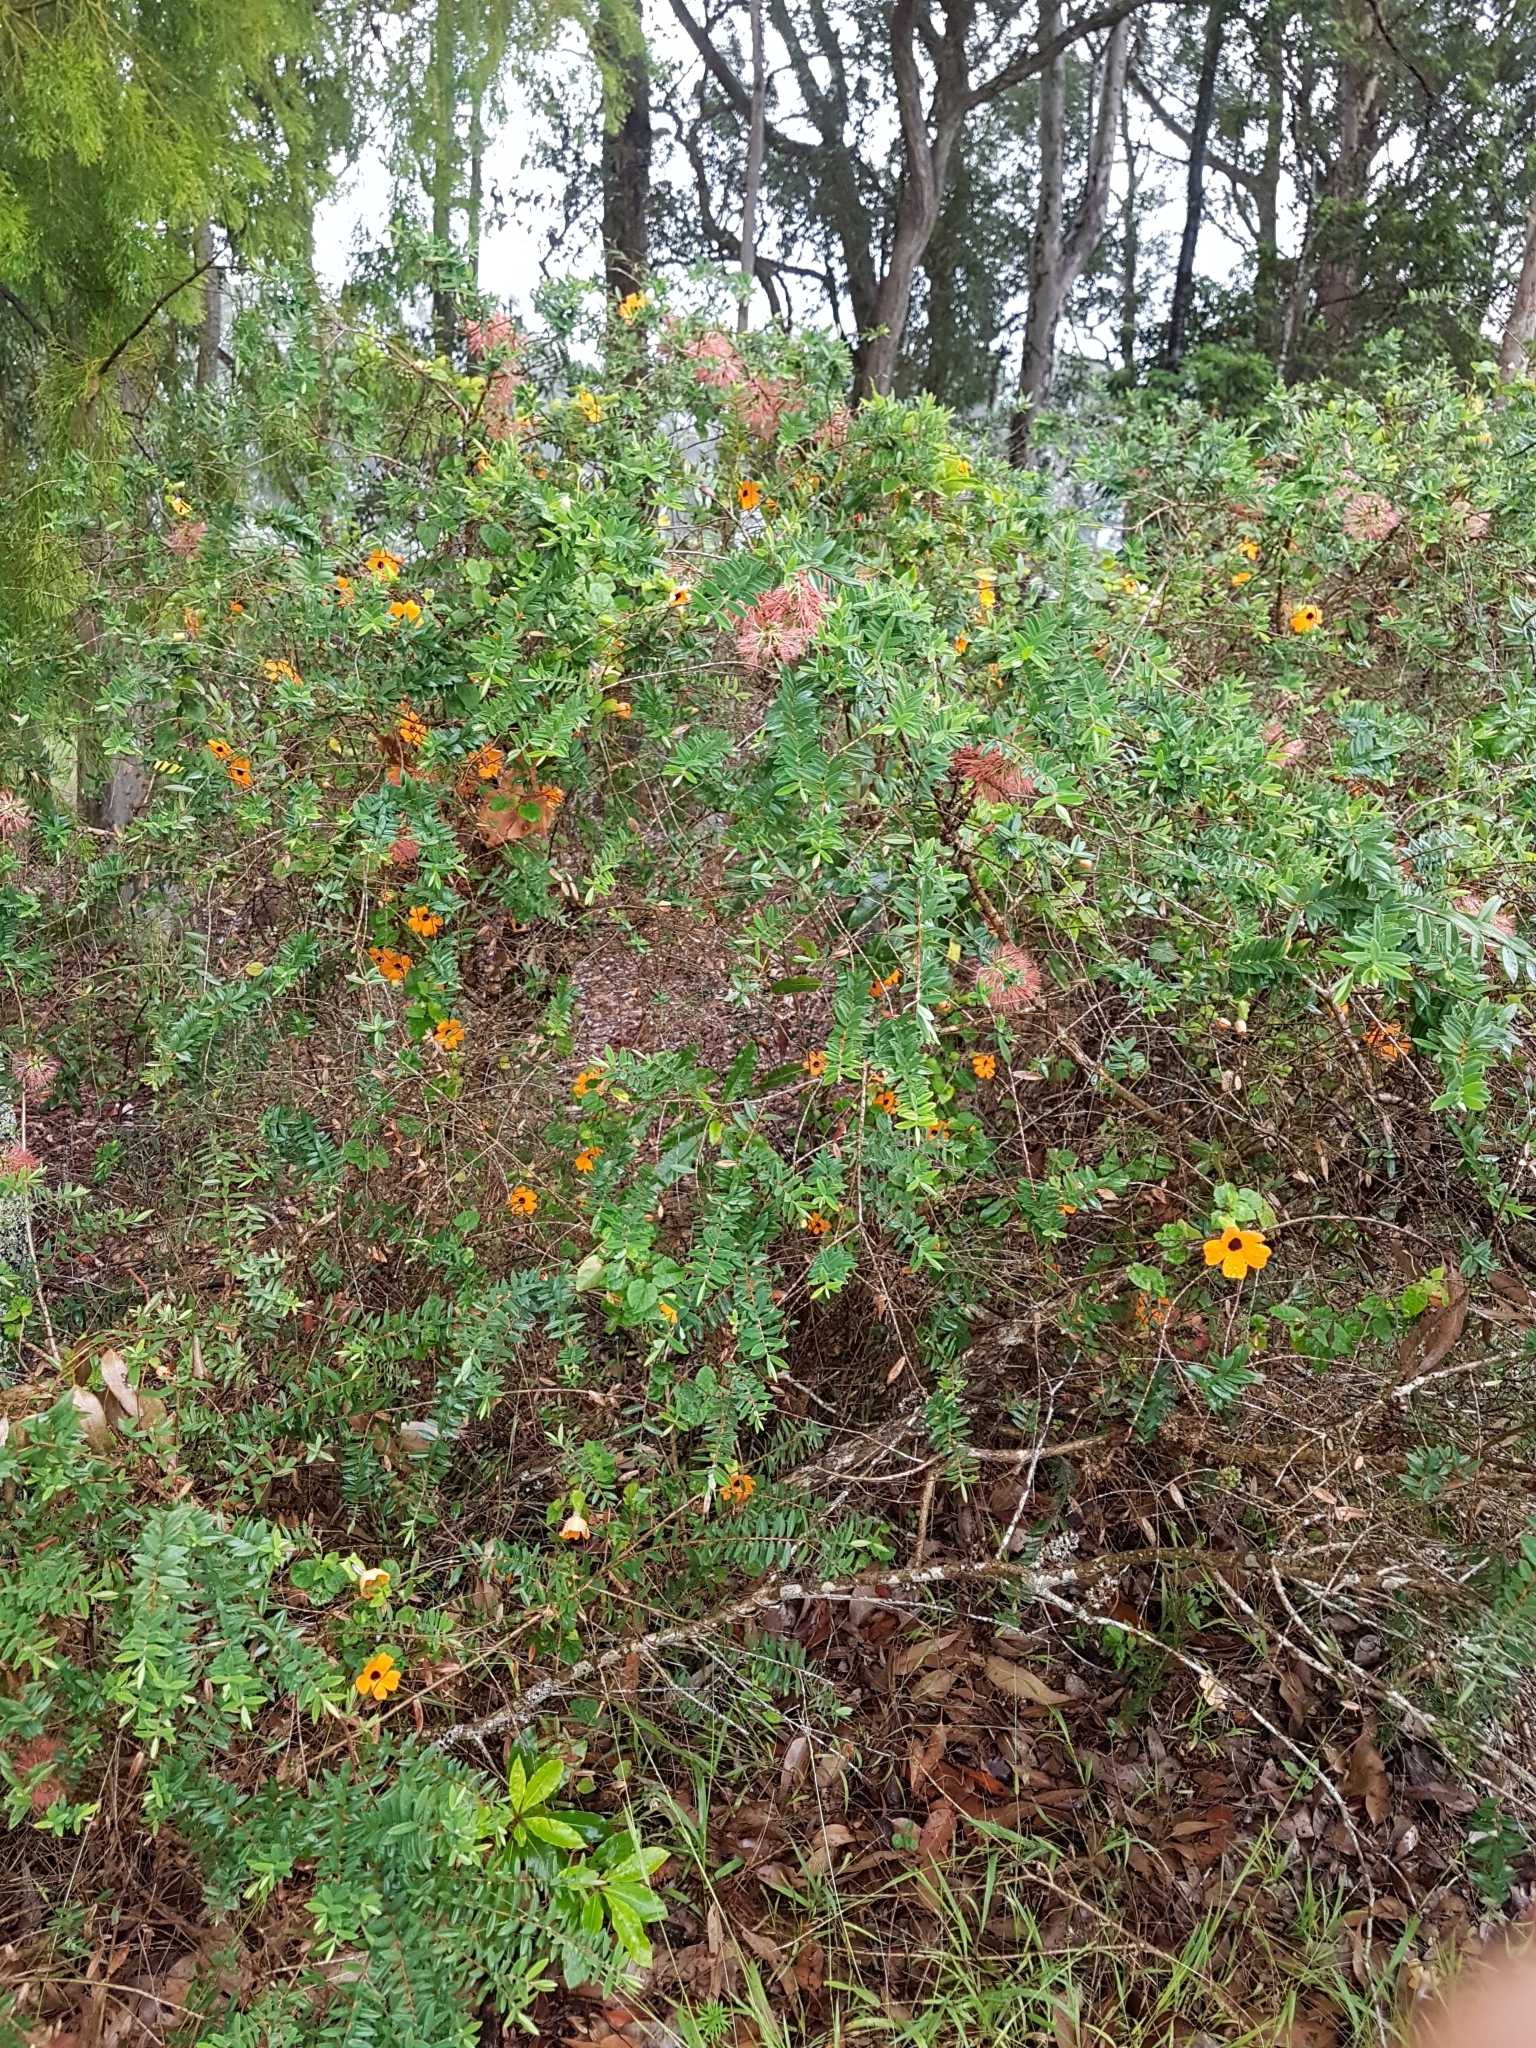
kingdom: Plantae
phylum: Tracheophyta
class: Magnoliopsida
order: Lamiales
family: Acanthaceae
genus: Thunbergia
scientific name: Thunbergia alata
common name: Blackeyed susan vine
